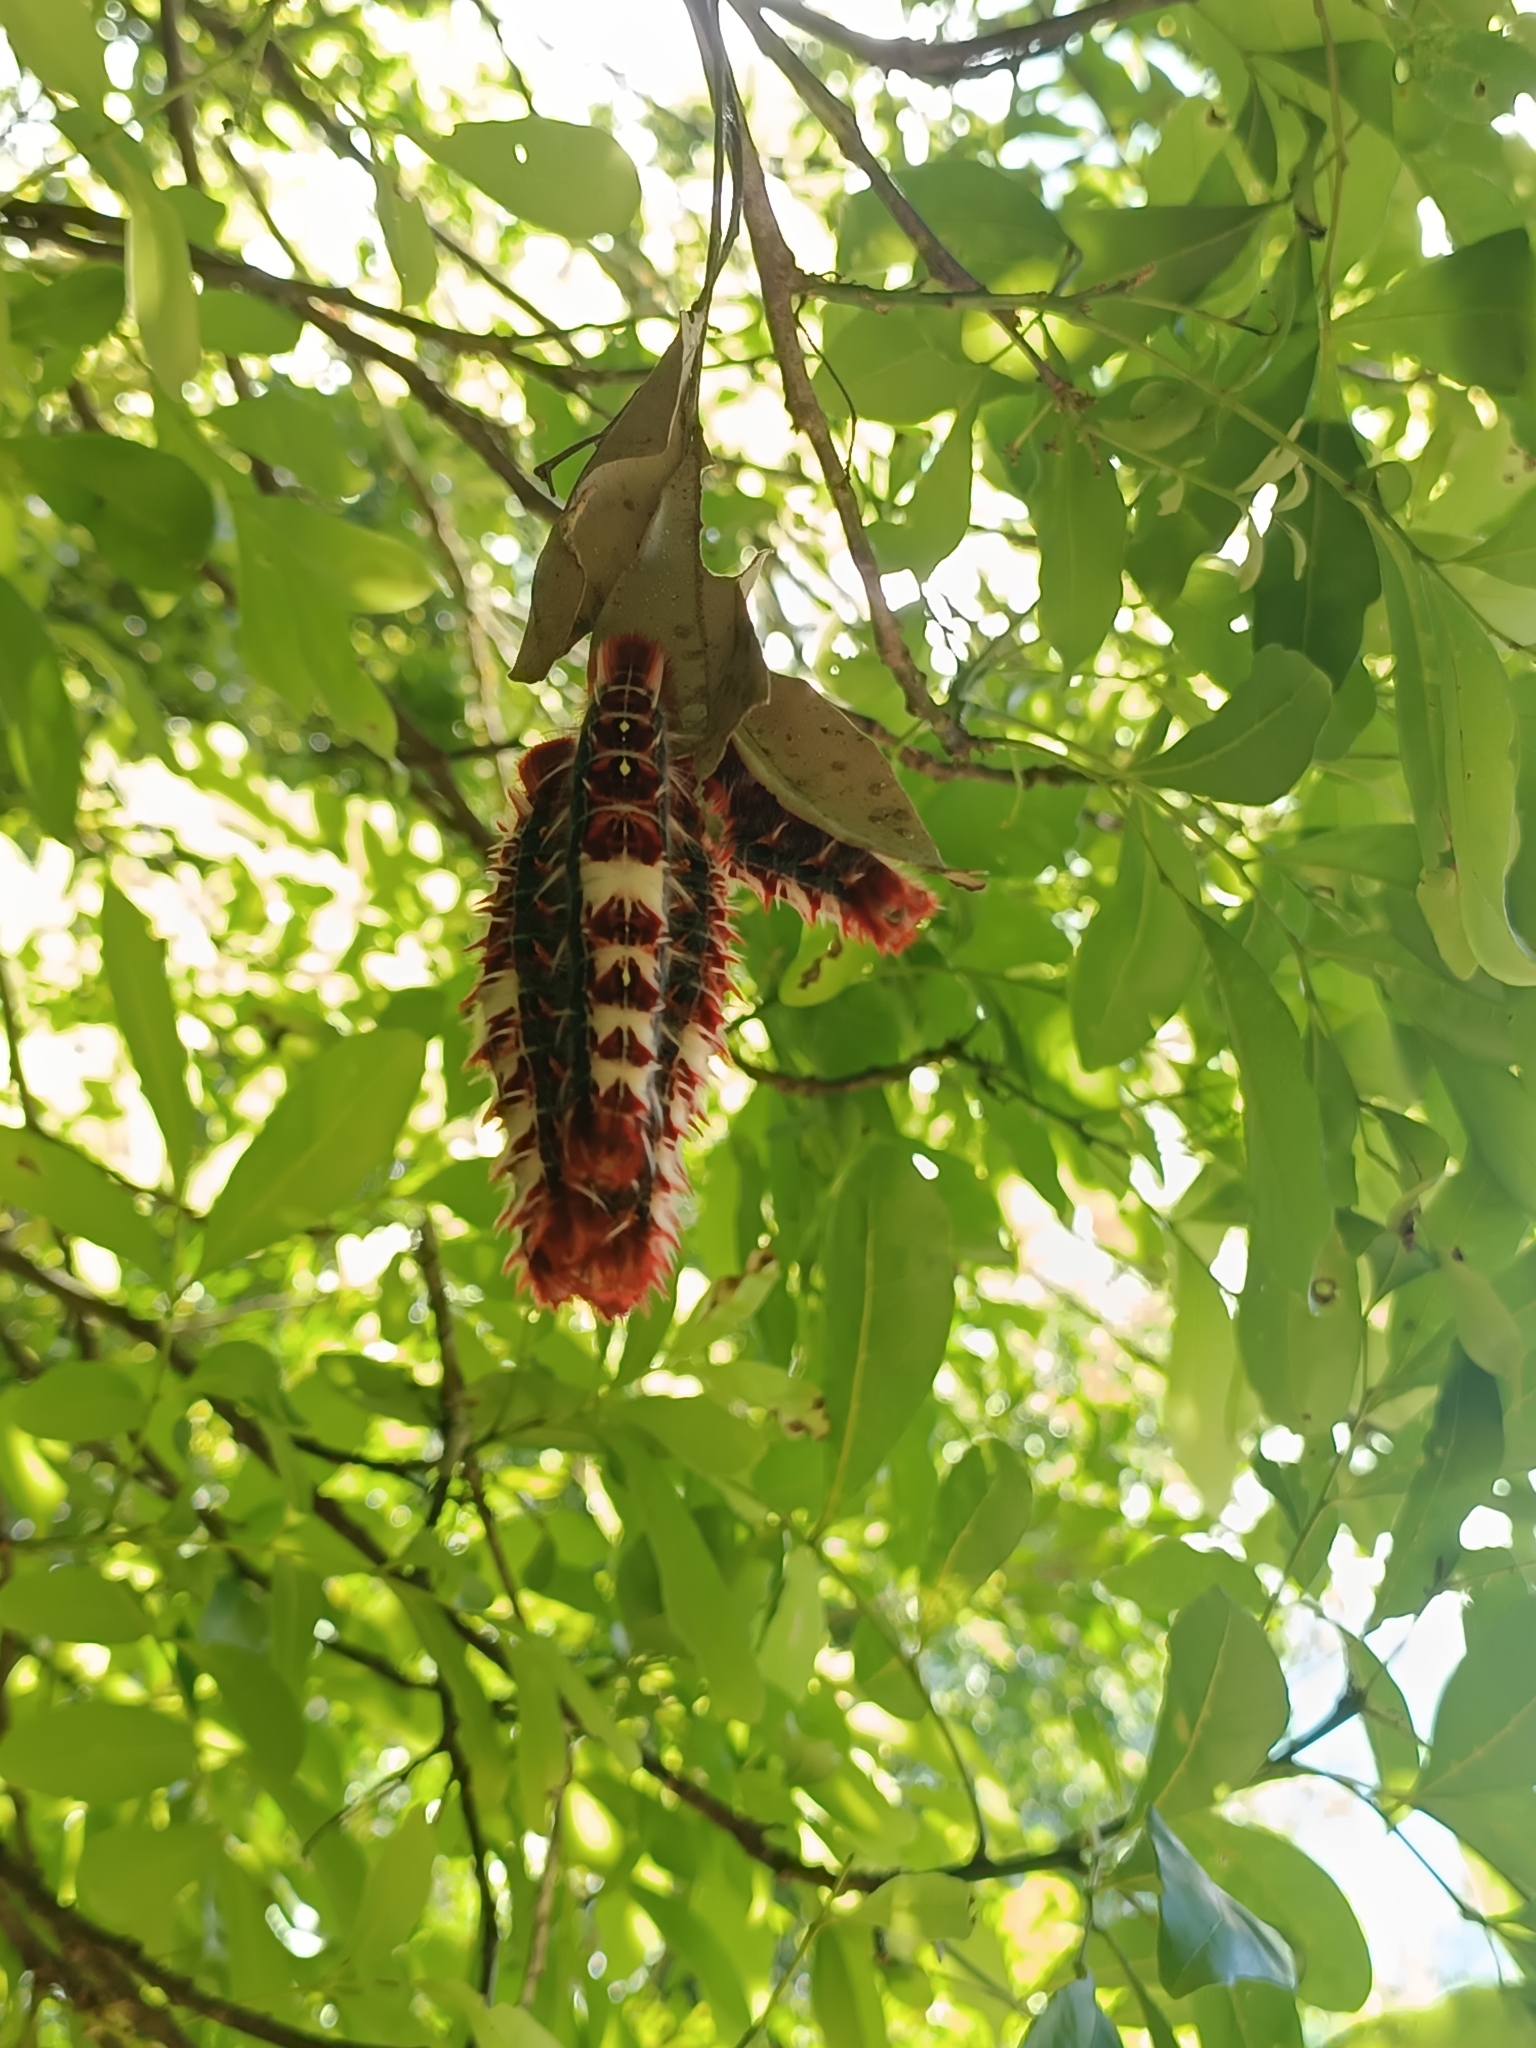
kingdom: Animalia
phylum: Arthropoda
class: Insecta
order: Lepidoptera
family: Nymphalidae
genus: Morpho
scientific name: Morpho epistrophus
